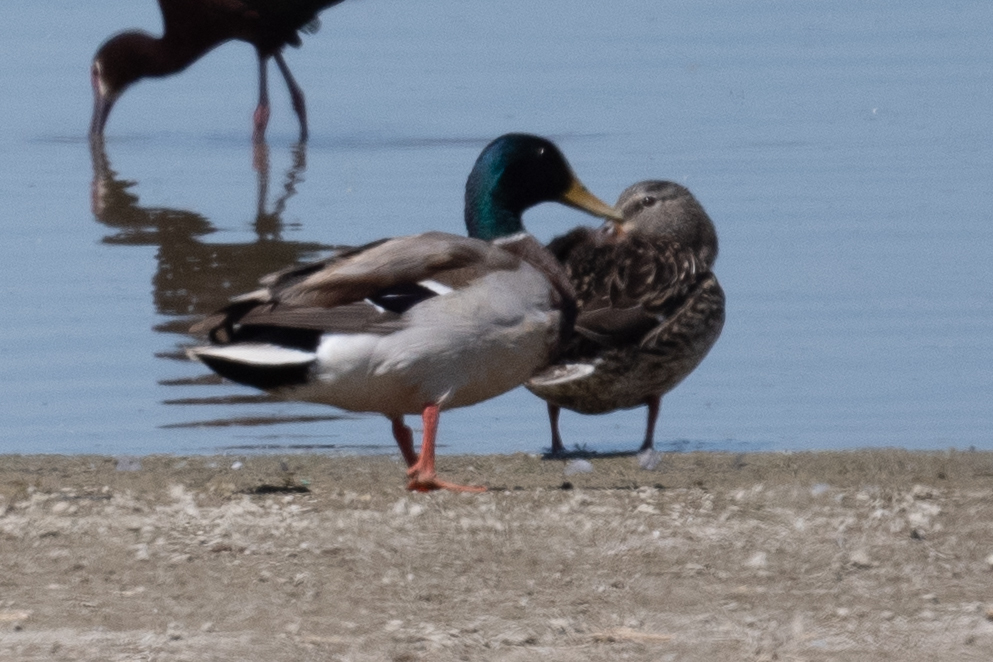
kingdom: Animalia
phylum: Chordata
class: Aves
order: Anseriformes
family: Anatidae
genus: Anas
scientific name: Anas platyrhynchos
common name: Mallard
